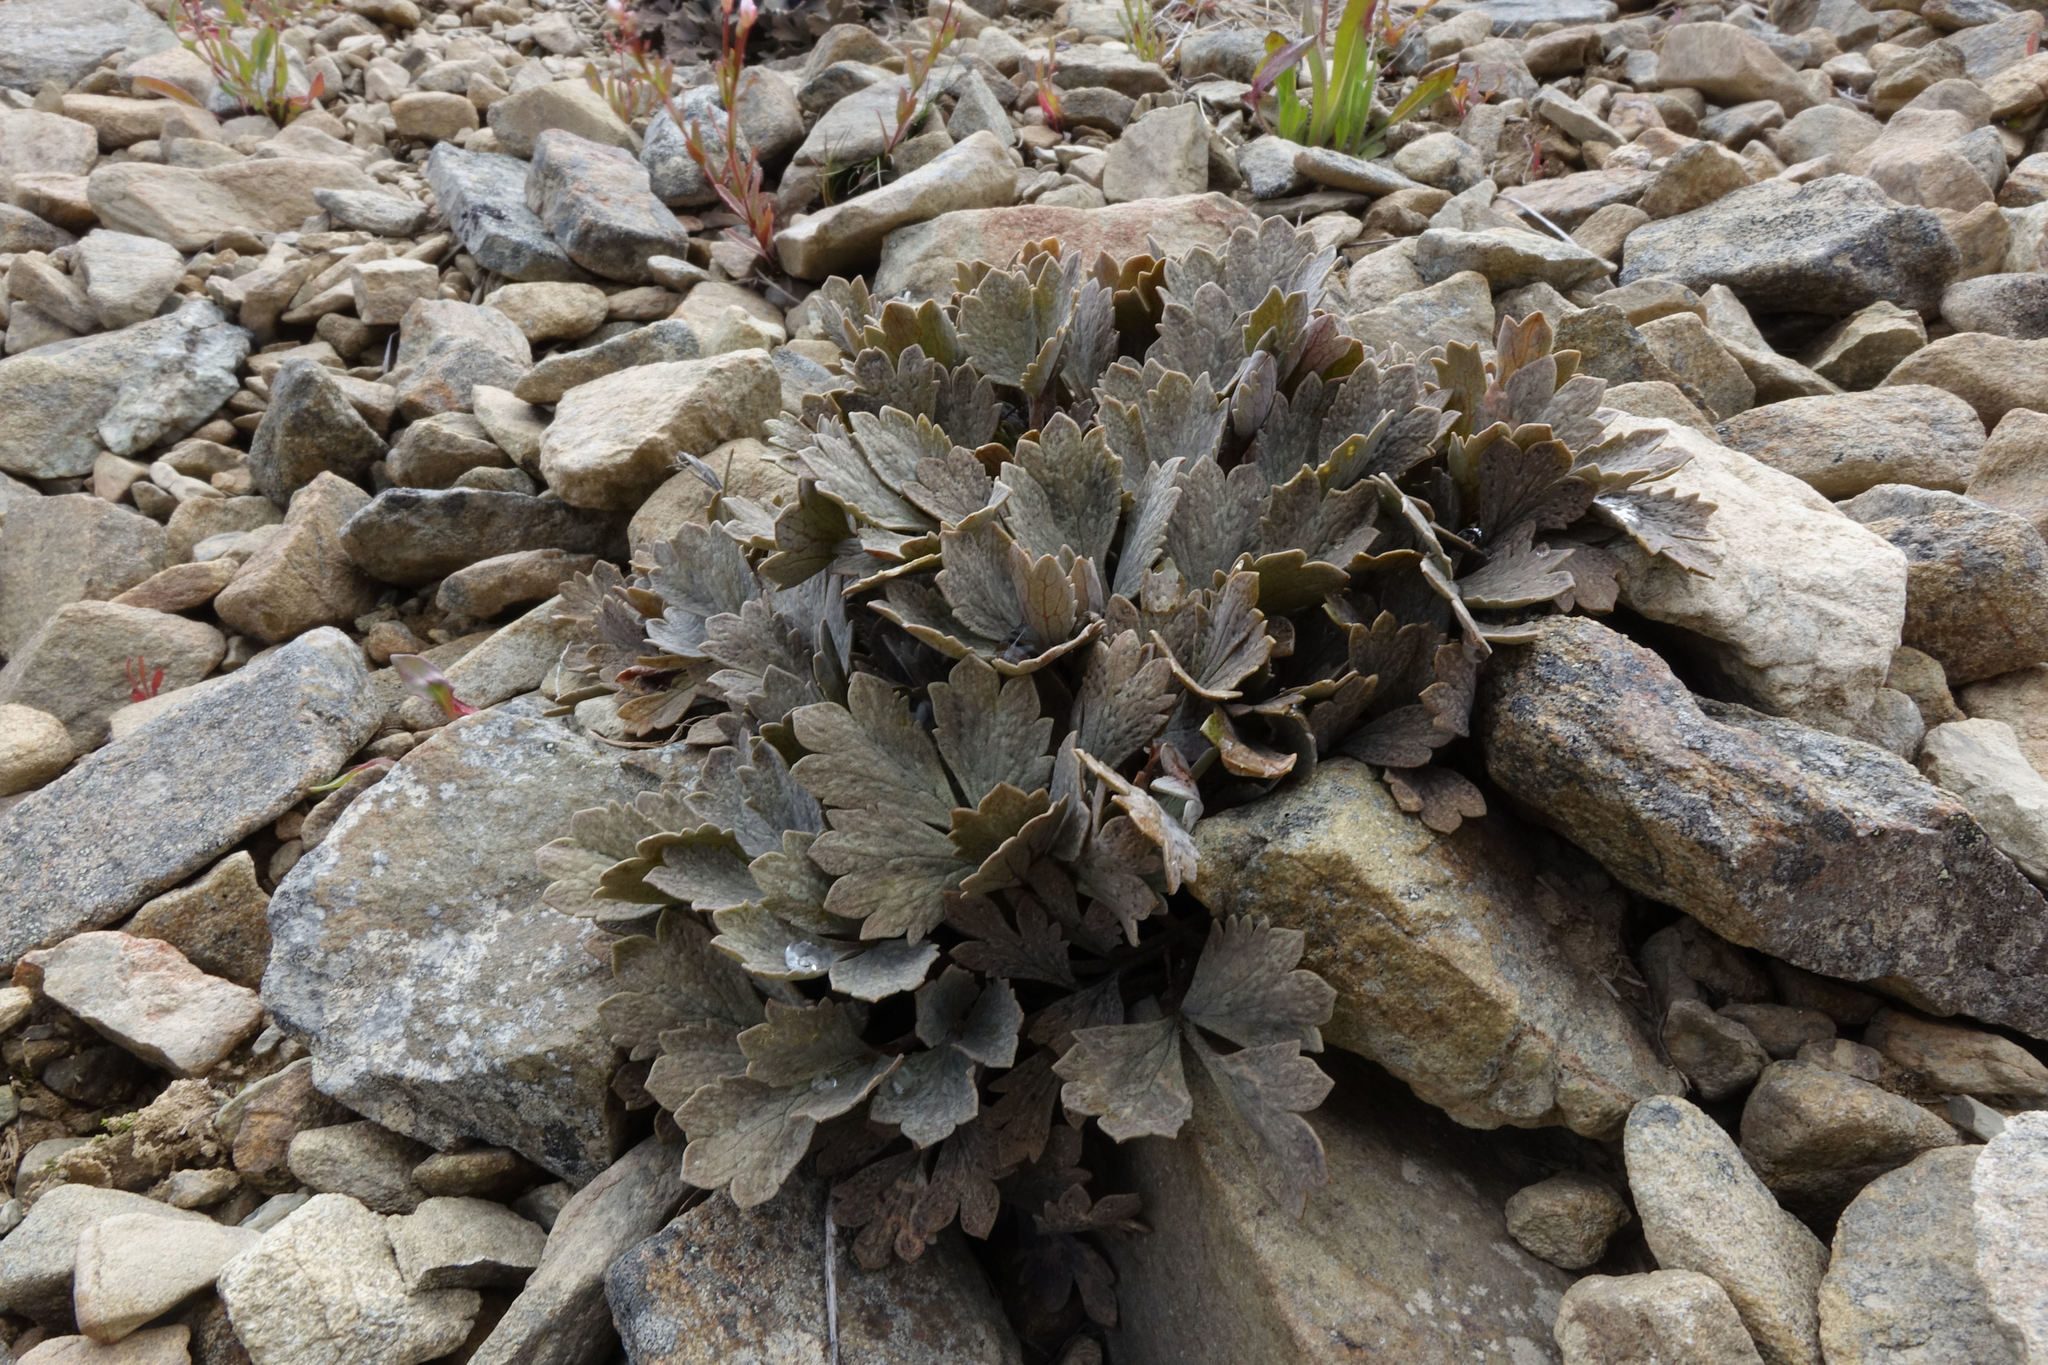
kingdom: Plantae
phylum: Tracheophyta
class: Magnoliopsida
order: Ranunculales
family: Ranunculaceae
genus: Ranunculus
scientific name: Ranunculus crithmifolius
